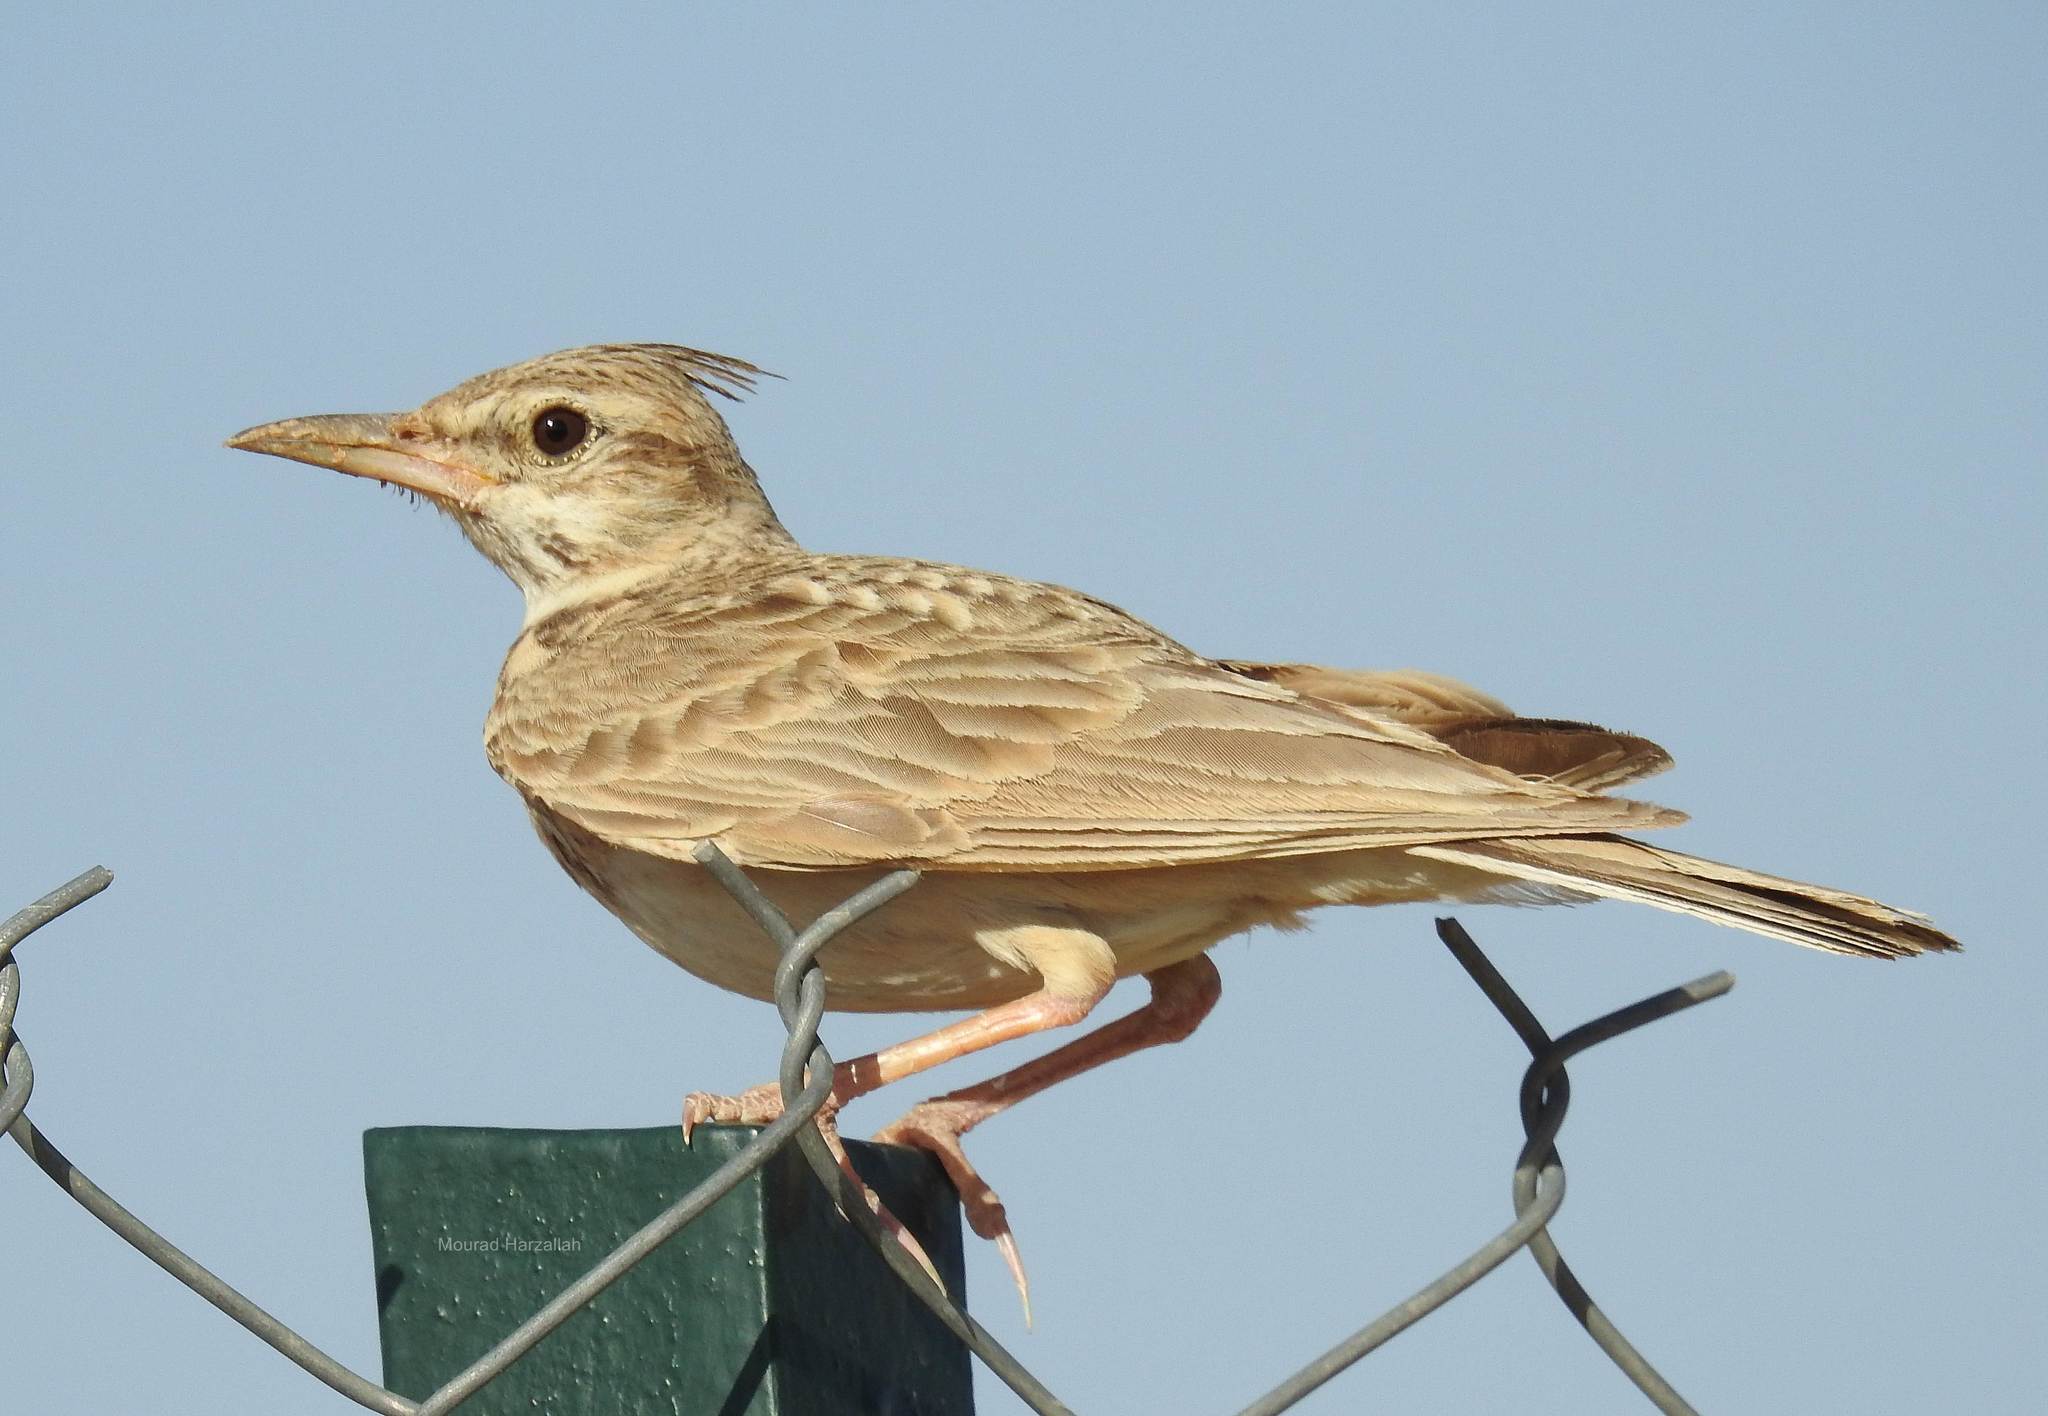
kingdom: Animalia
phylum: Chordata
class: Aves
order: Passeriformes
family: Alaudidae
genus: Galerida
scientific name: Galerida cristata
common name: Crested lark
